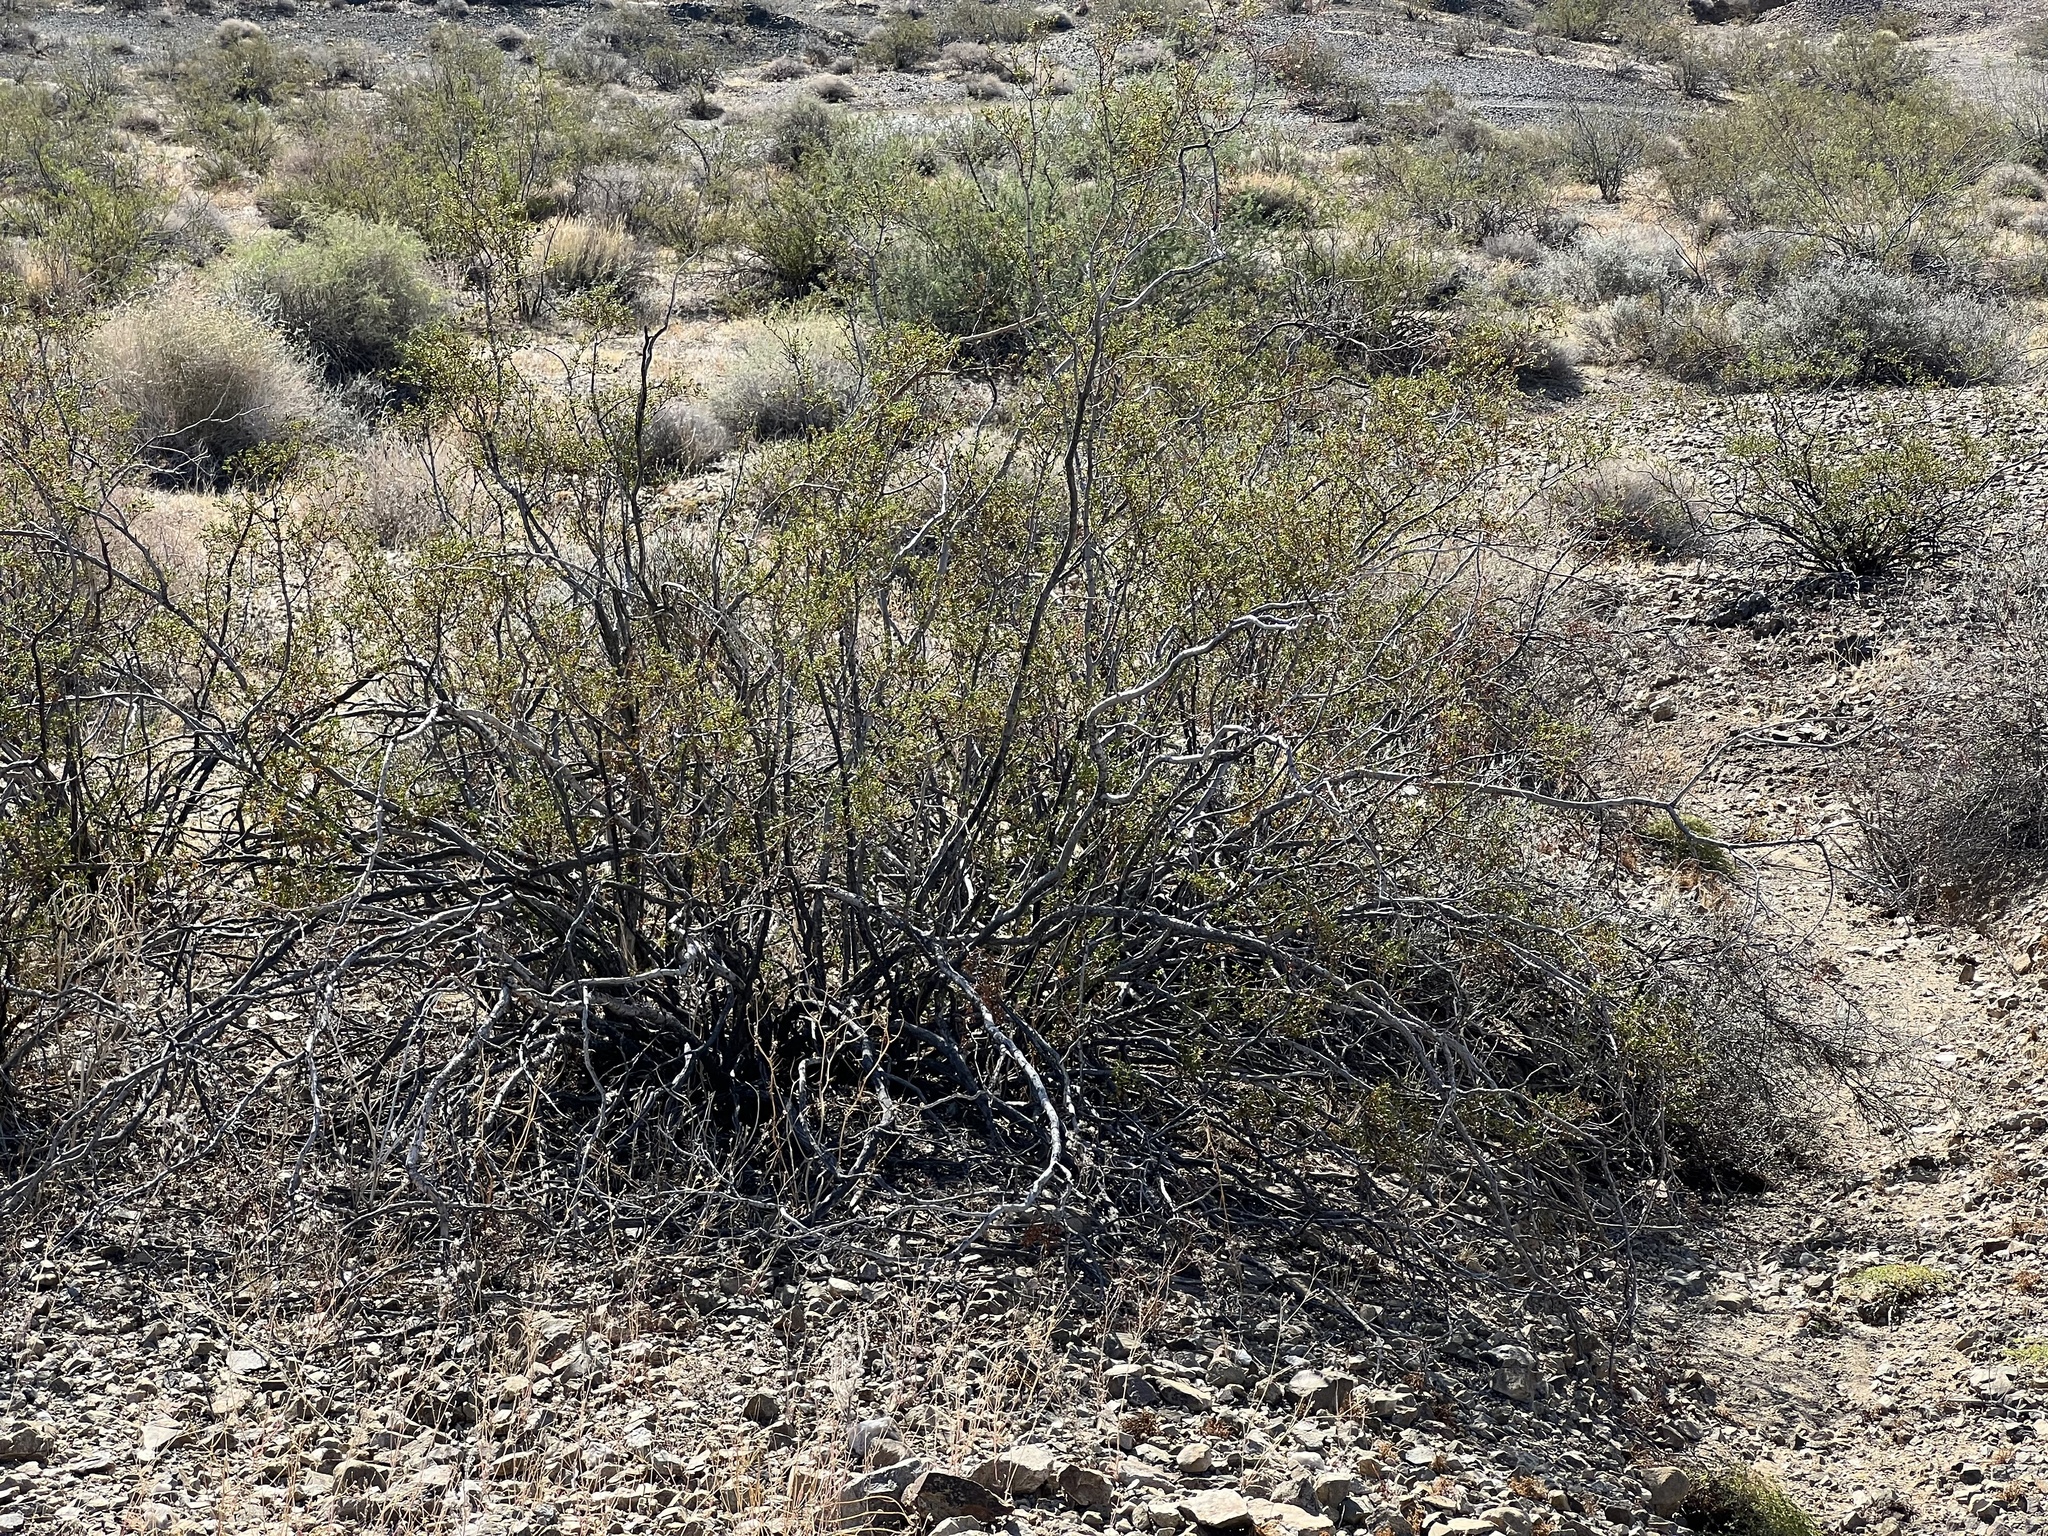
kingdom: Plantae
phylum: Tracheophyta
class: Magnoliopsida
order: Zygophyllales
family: Zygophyllaceae
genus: Larrea
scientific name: Larrea tridentata
